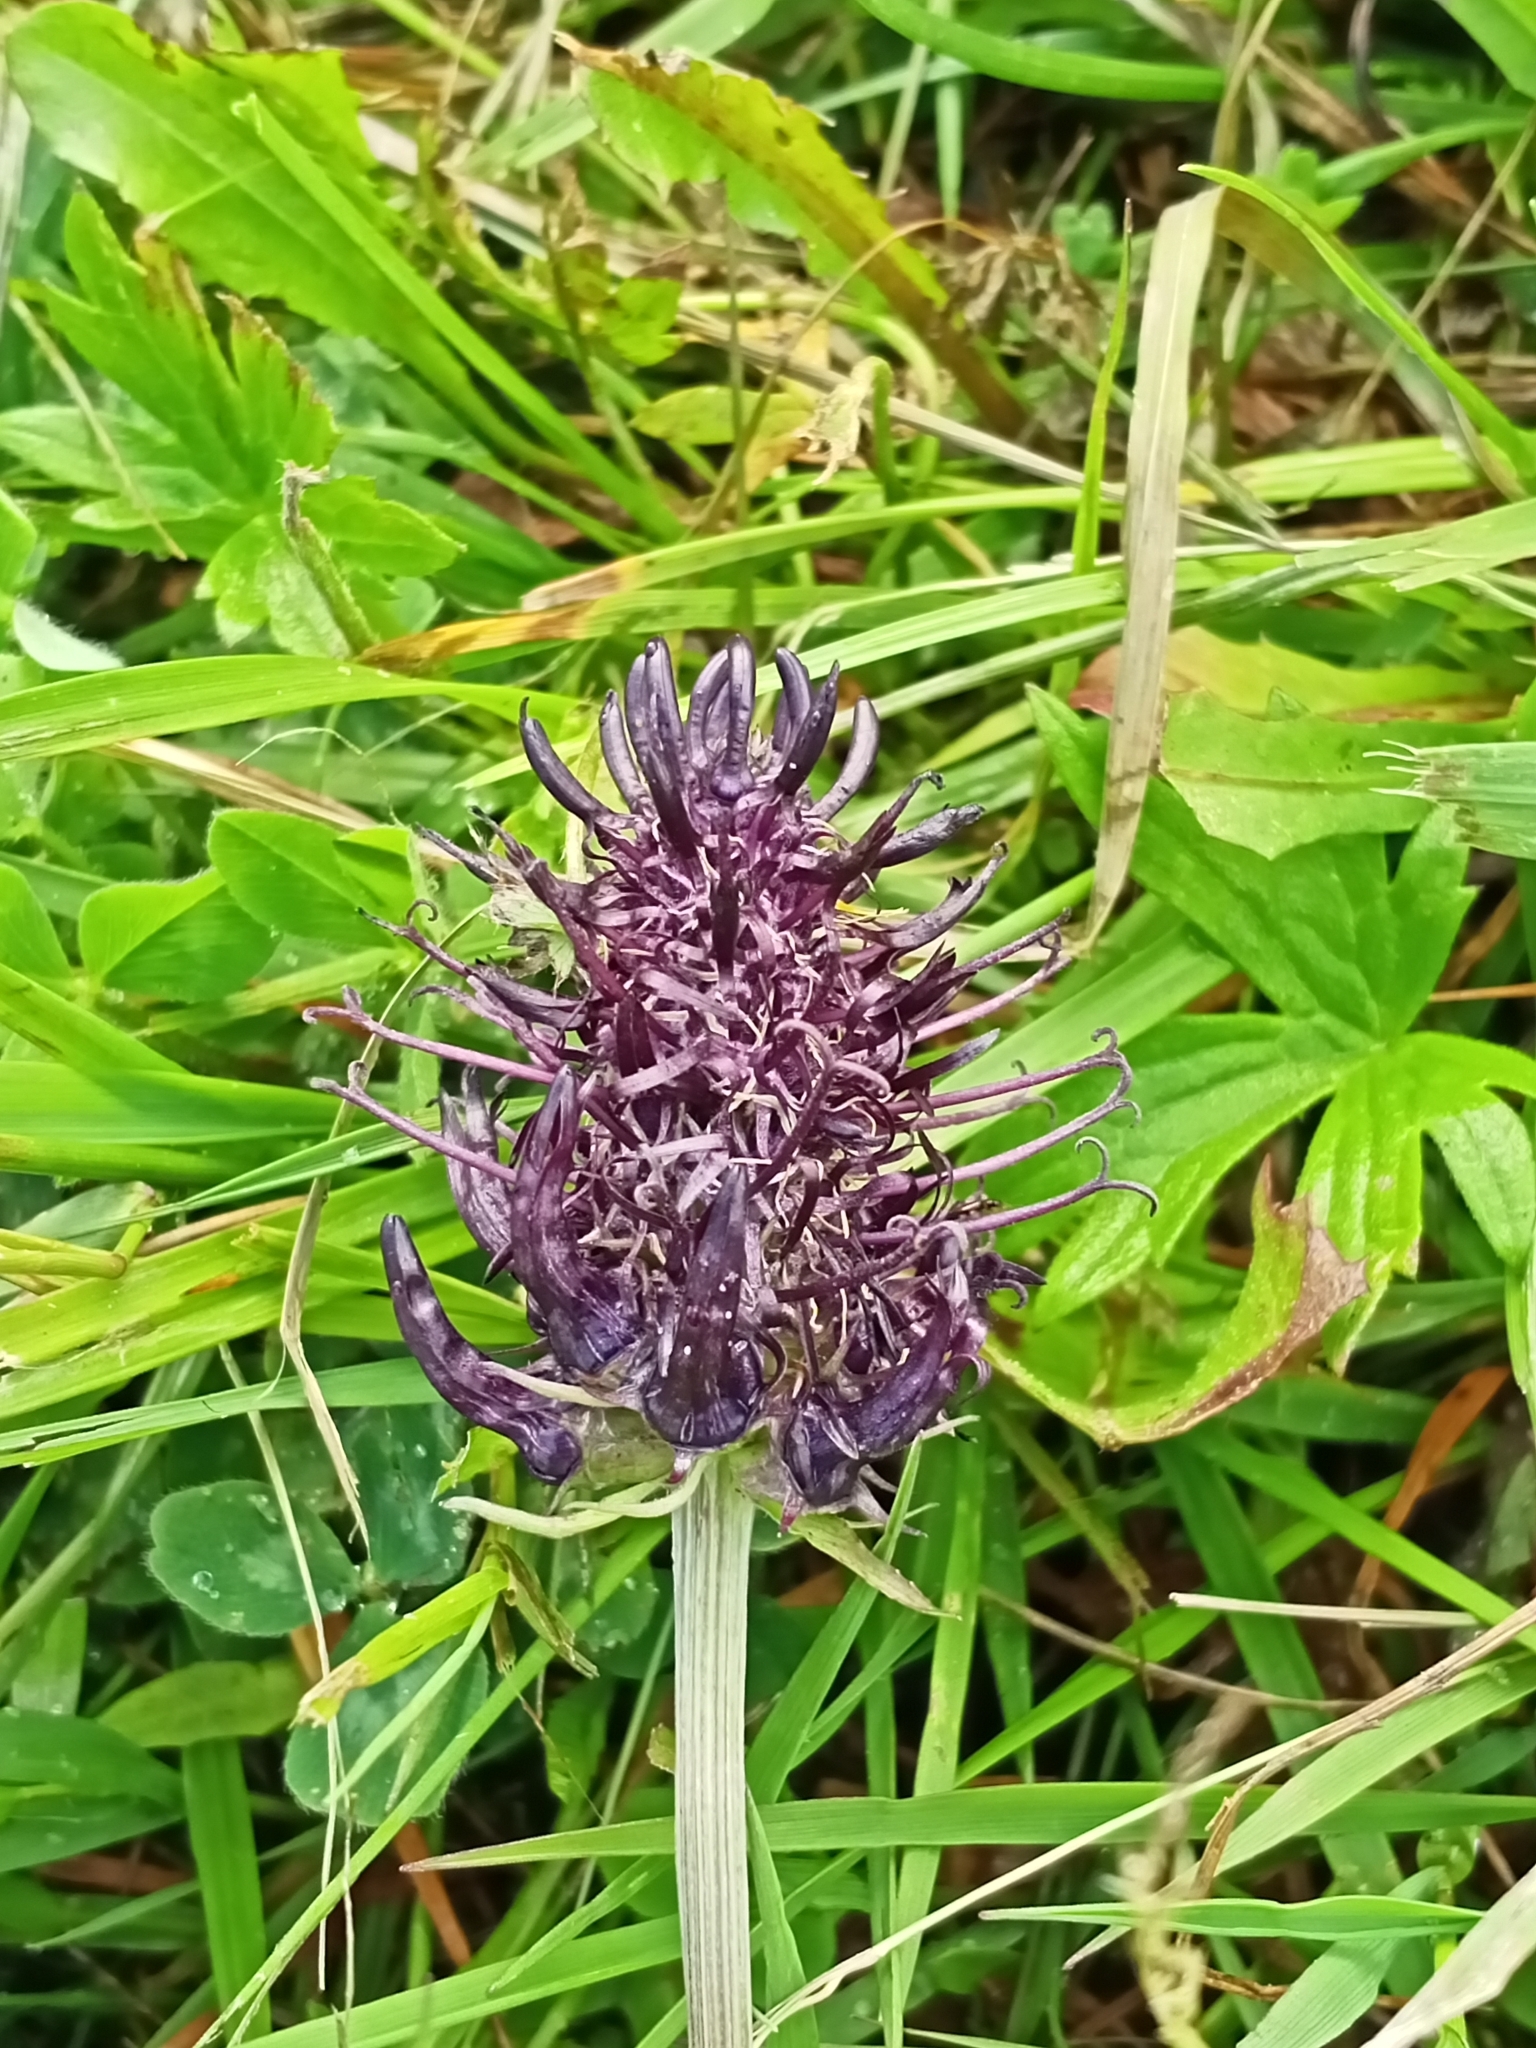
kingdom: Plantae
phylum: Tracheophyta
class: Magnoliopsida
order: Asterales
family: Campanulaceae
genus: Phyteuma
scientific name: Phyteuma nigrum
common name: Black rampion
